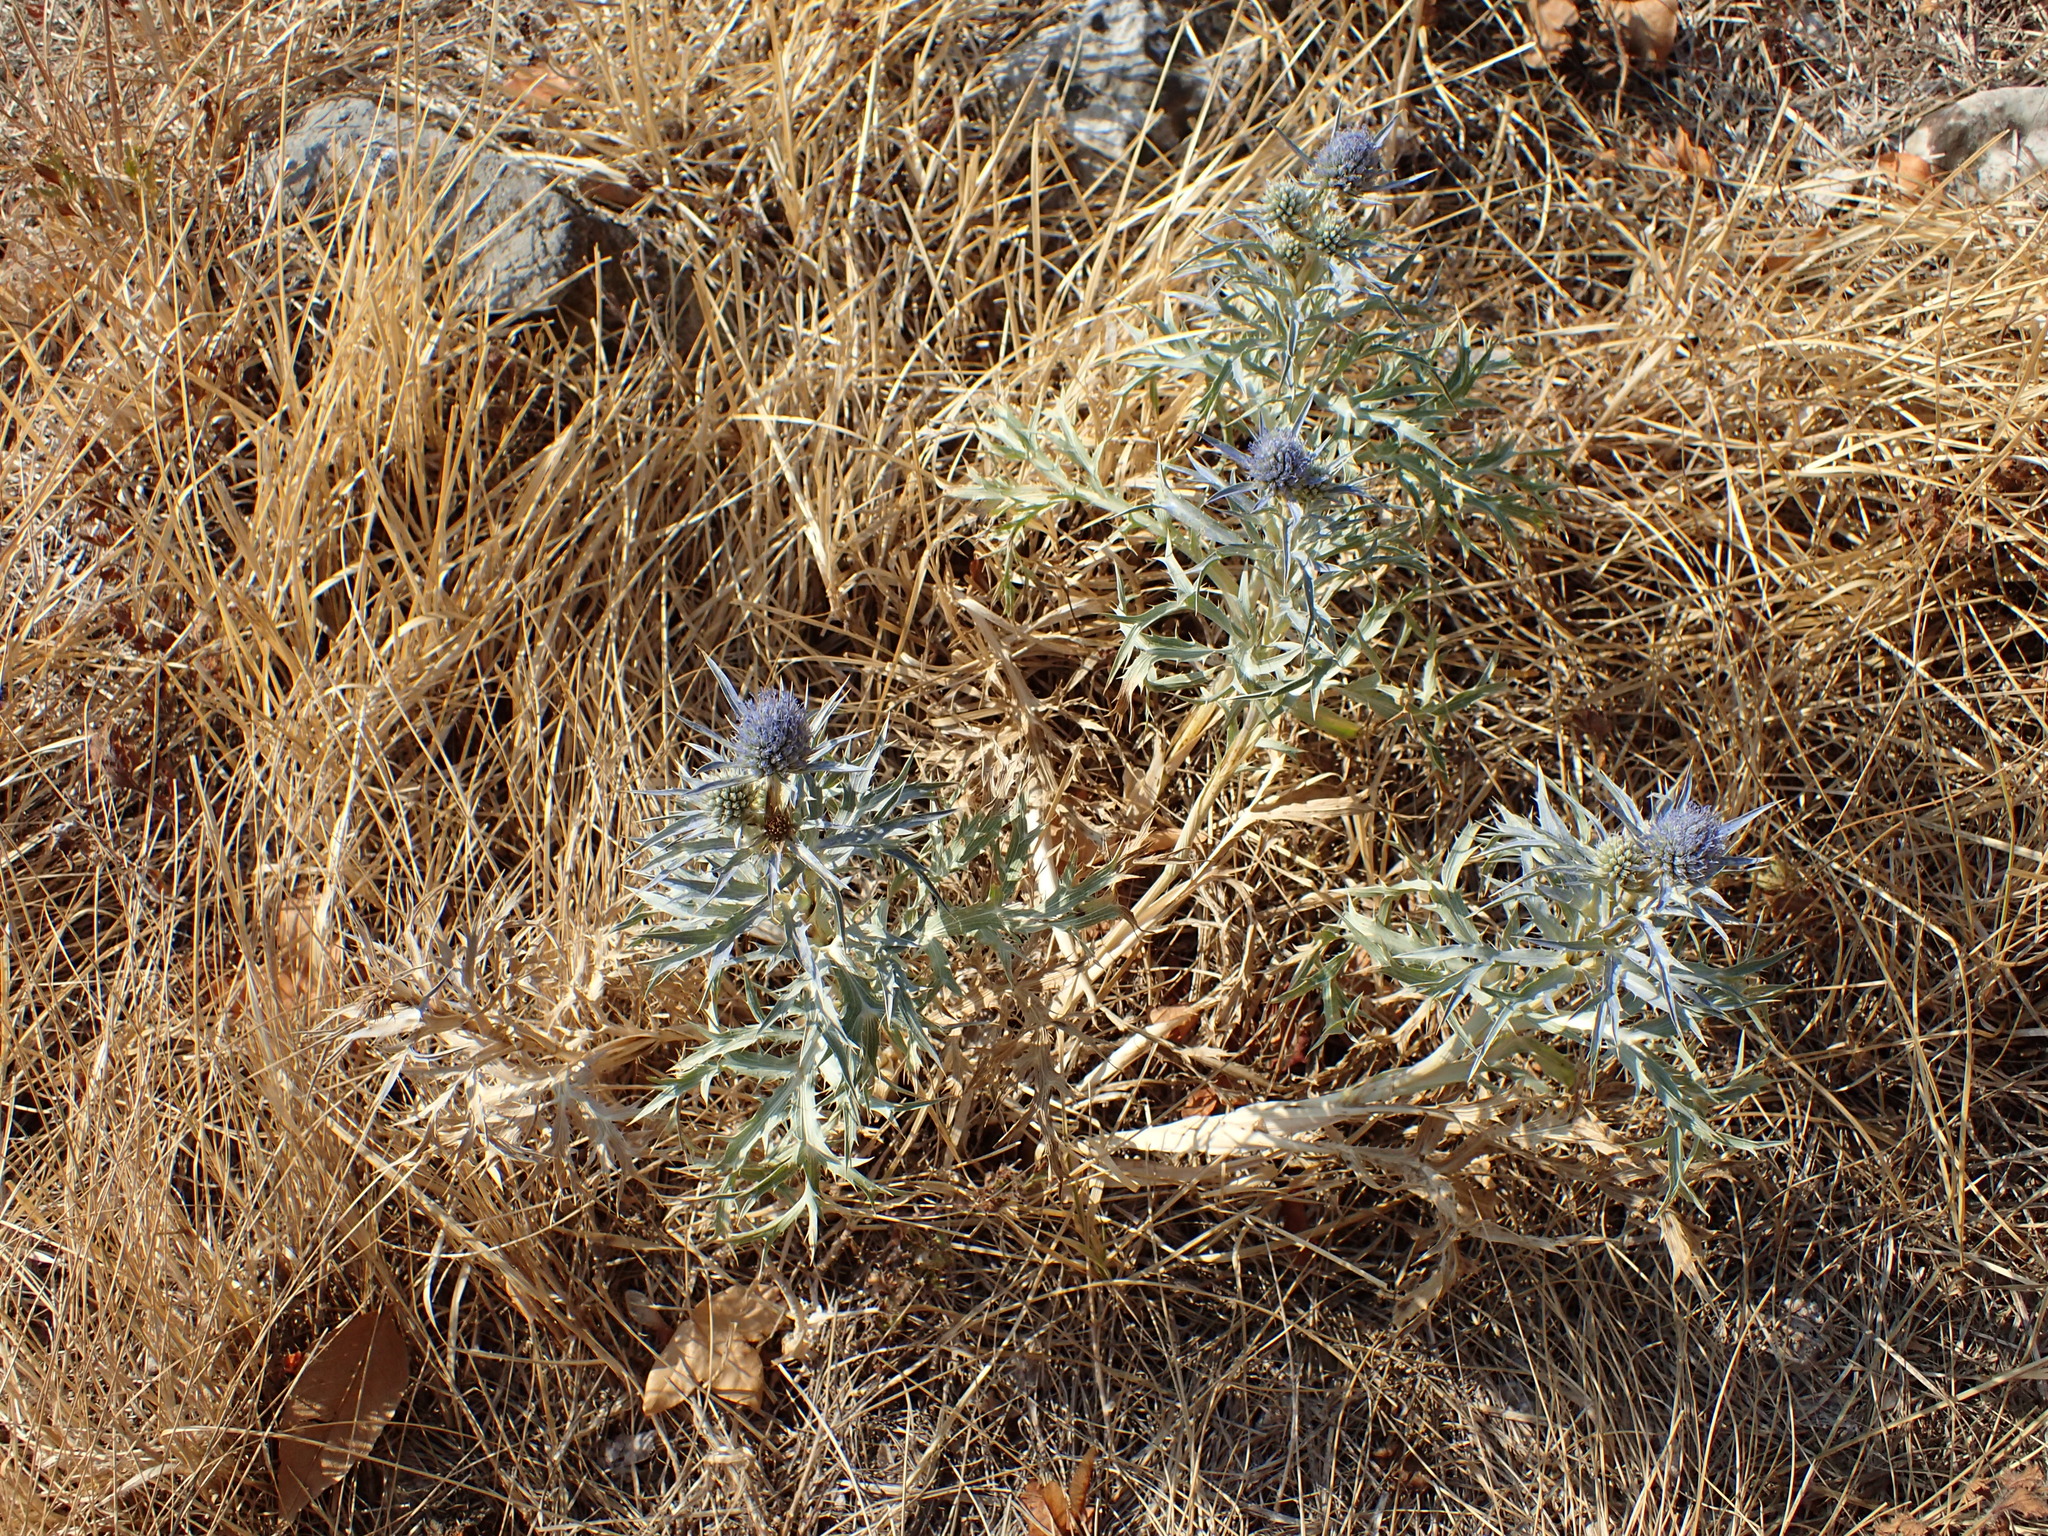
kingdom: Plantae
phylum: Tracheophyta
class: Magnoliopsida
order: Apiales
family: Apiaceae
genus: Eryngium
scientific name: Eryngium amethystinum
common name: Amethyst eryngo
